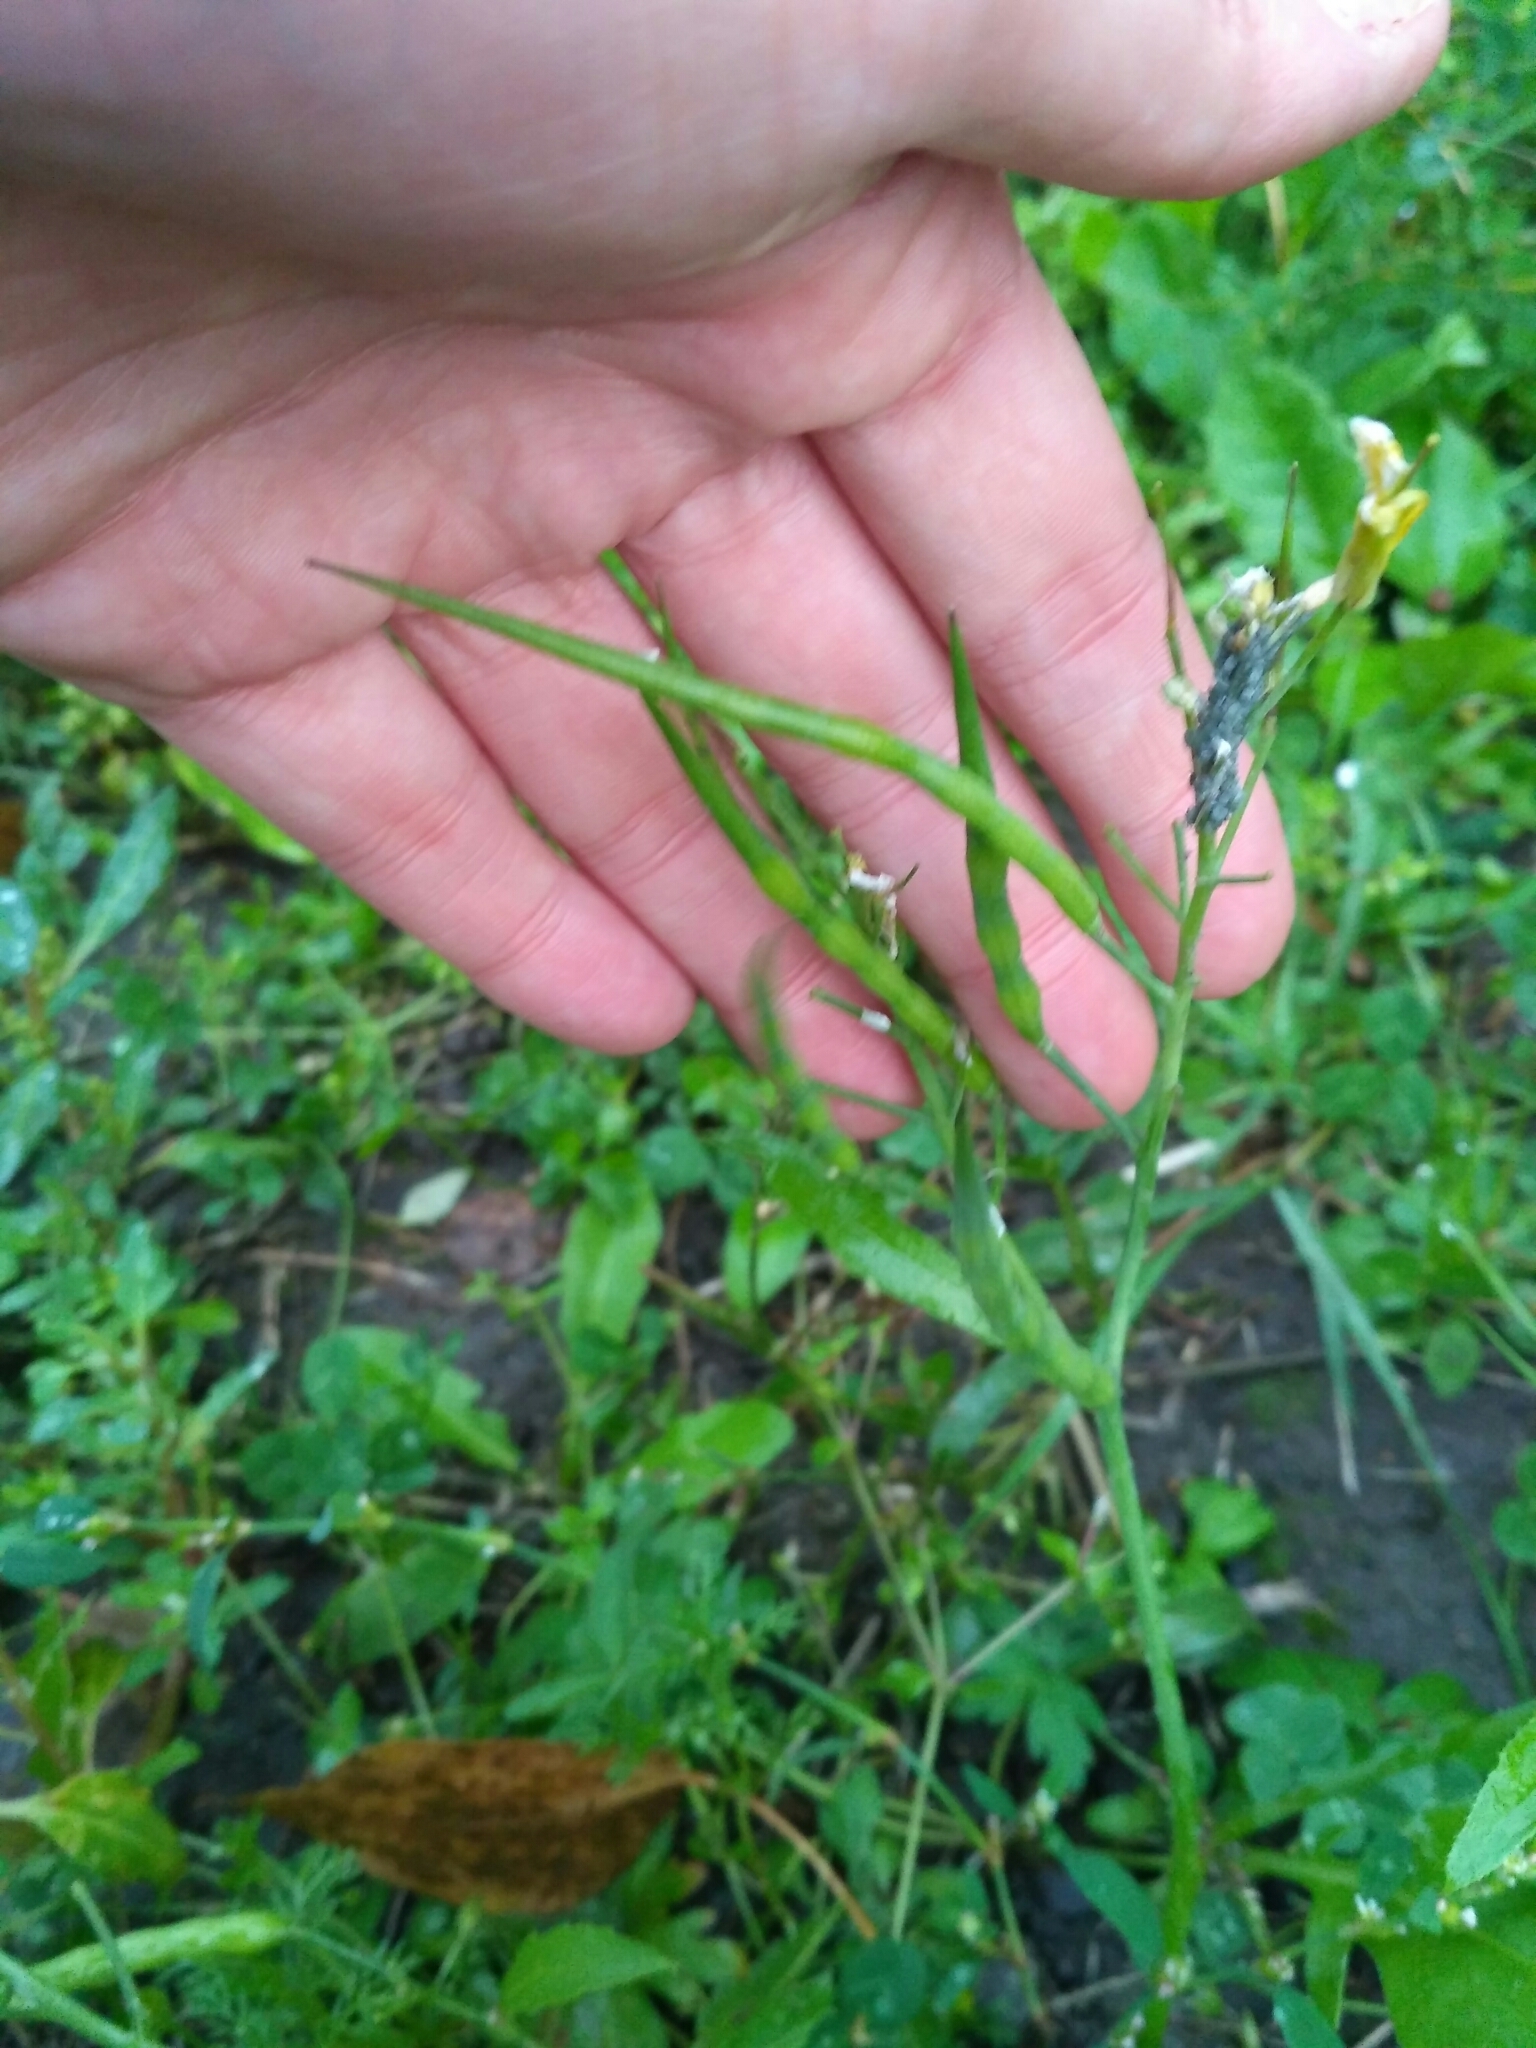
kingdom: Plantae
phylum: Tracheophyta
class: Magnoliopsida
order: Brassicales
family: Brassicaceae
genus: Raphanus
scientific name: Raphanus raphanistrum
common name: Wild radish
